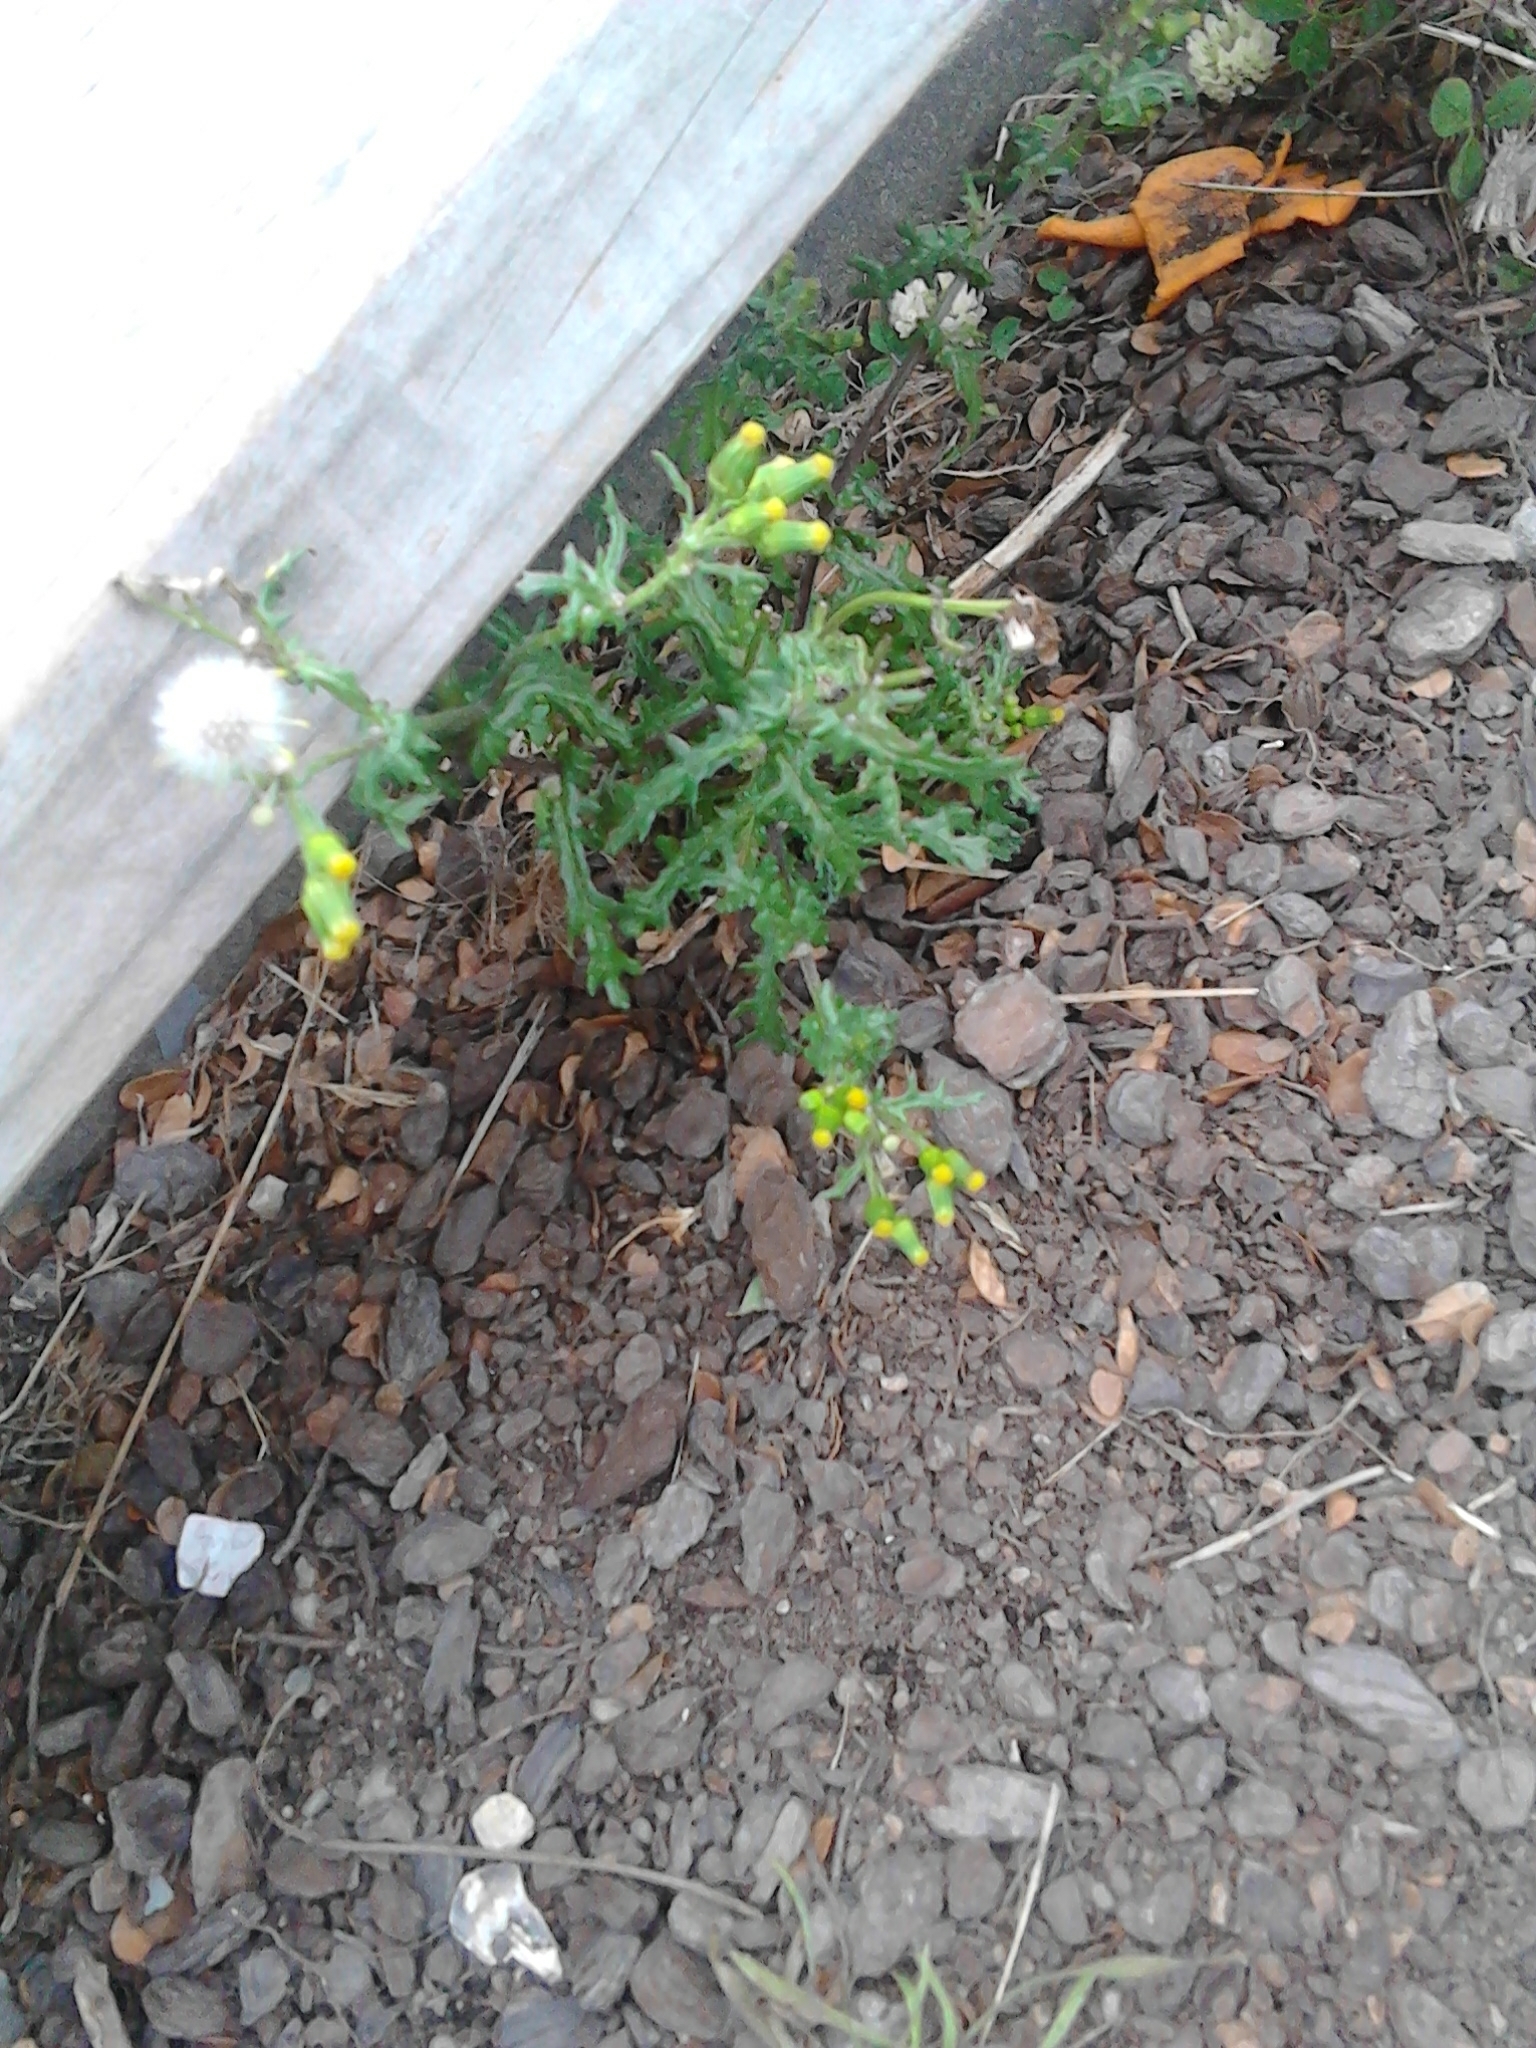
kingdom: Plantae
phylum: Tracheophyta
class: Magnoliopsida
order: Asterales
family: Asteraceae
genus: Senecio
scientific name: Senecio vulgaris
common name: Old-man-in-the-spring
